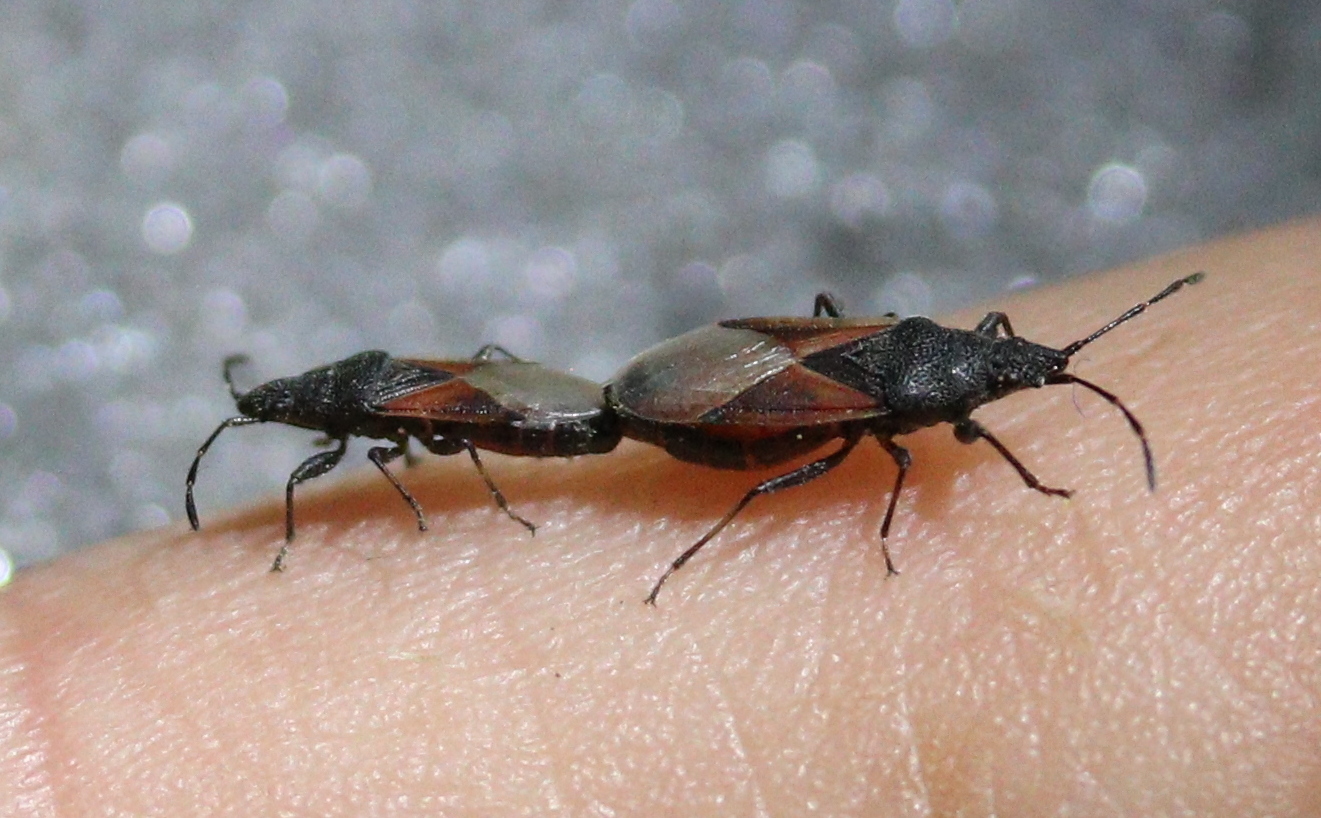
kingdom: Animalia
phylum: Arthropoda
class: Insecta
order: Hemiptera
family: Oxycarenidae
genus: Oxycarenus
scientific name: Oxycarenus lavaterae
